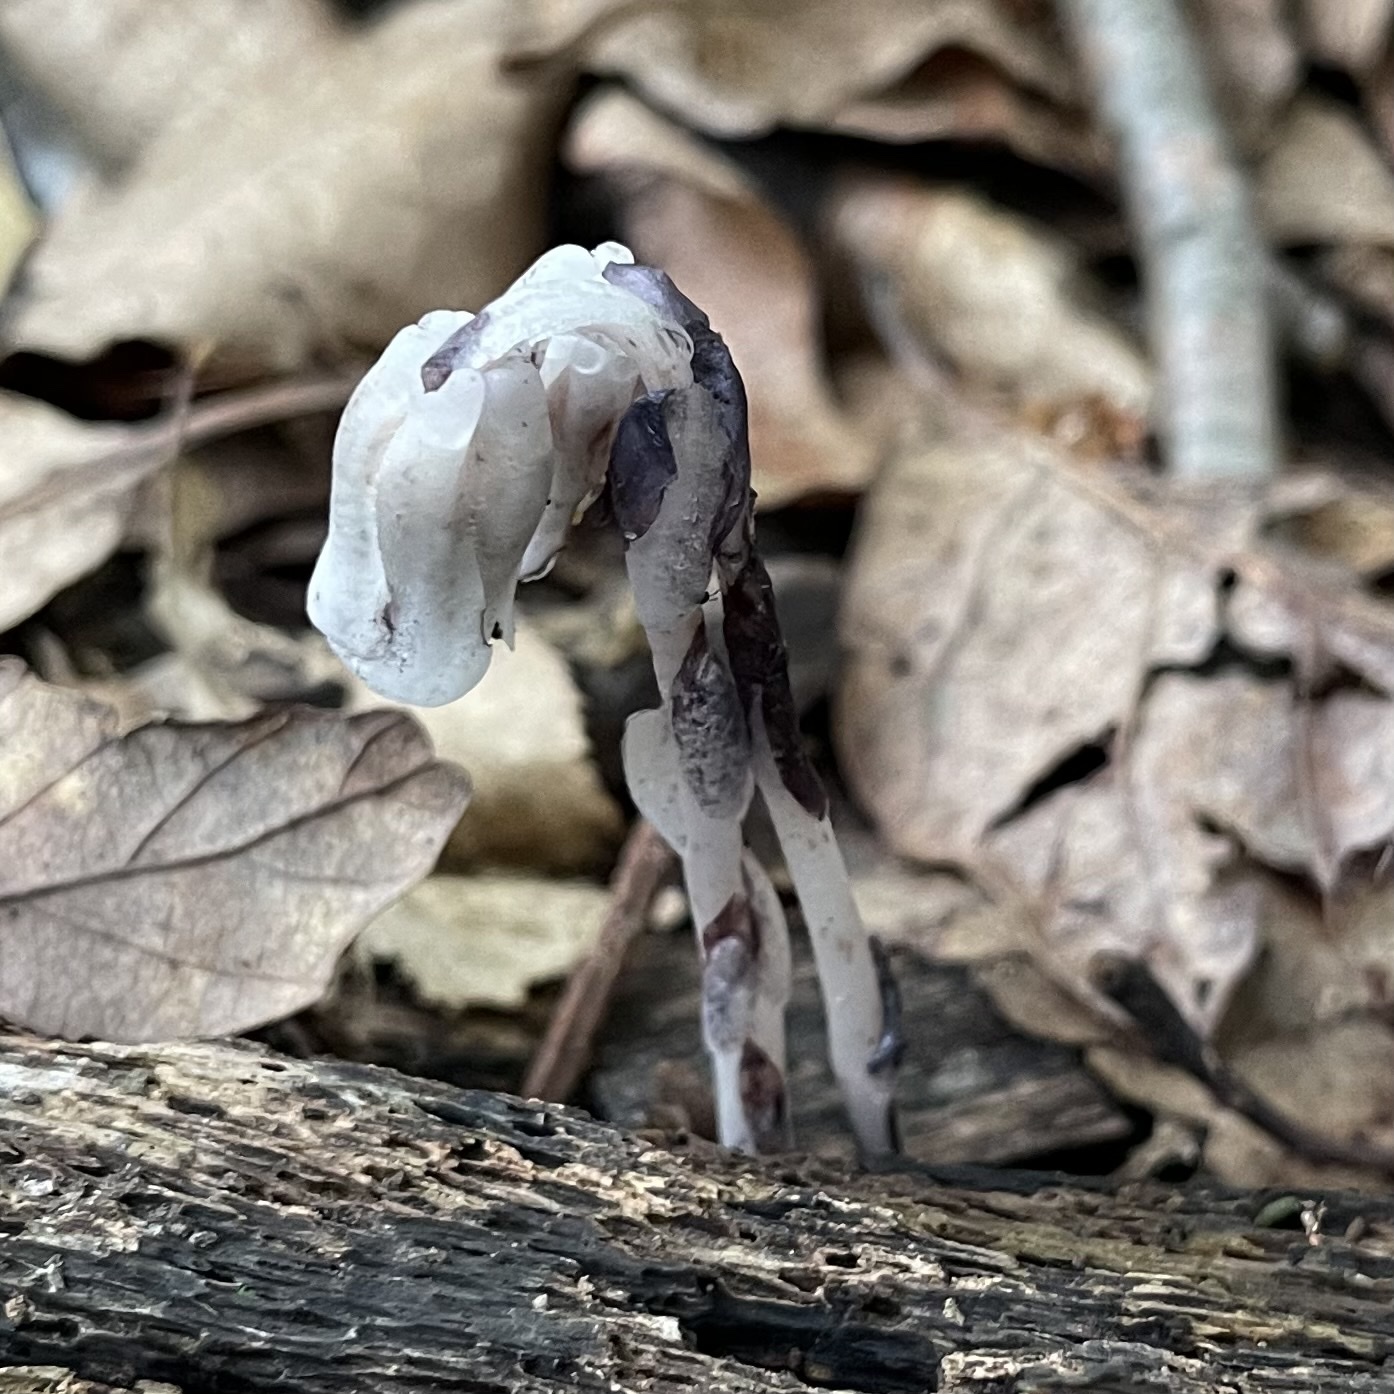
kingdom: Plantae
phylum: Tracheophyta
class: Magnoliopsida
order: Ericales
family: Ericaceae
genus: Monotropa
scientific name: Monotropa uniflora
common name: Convulsion root
